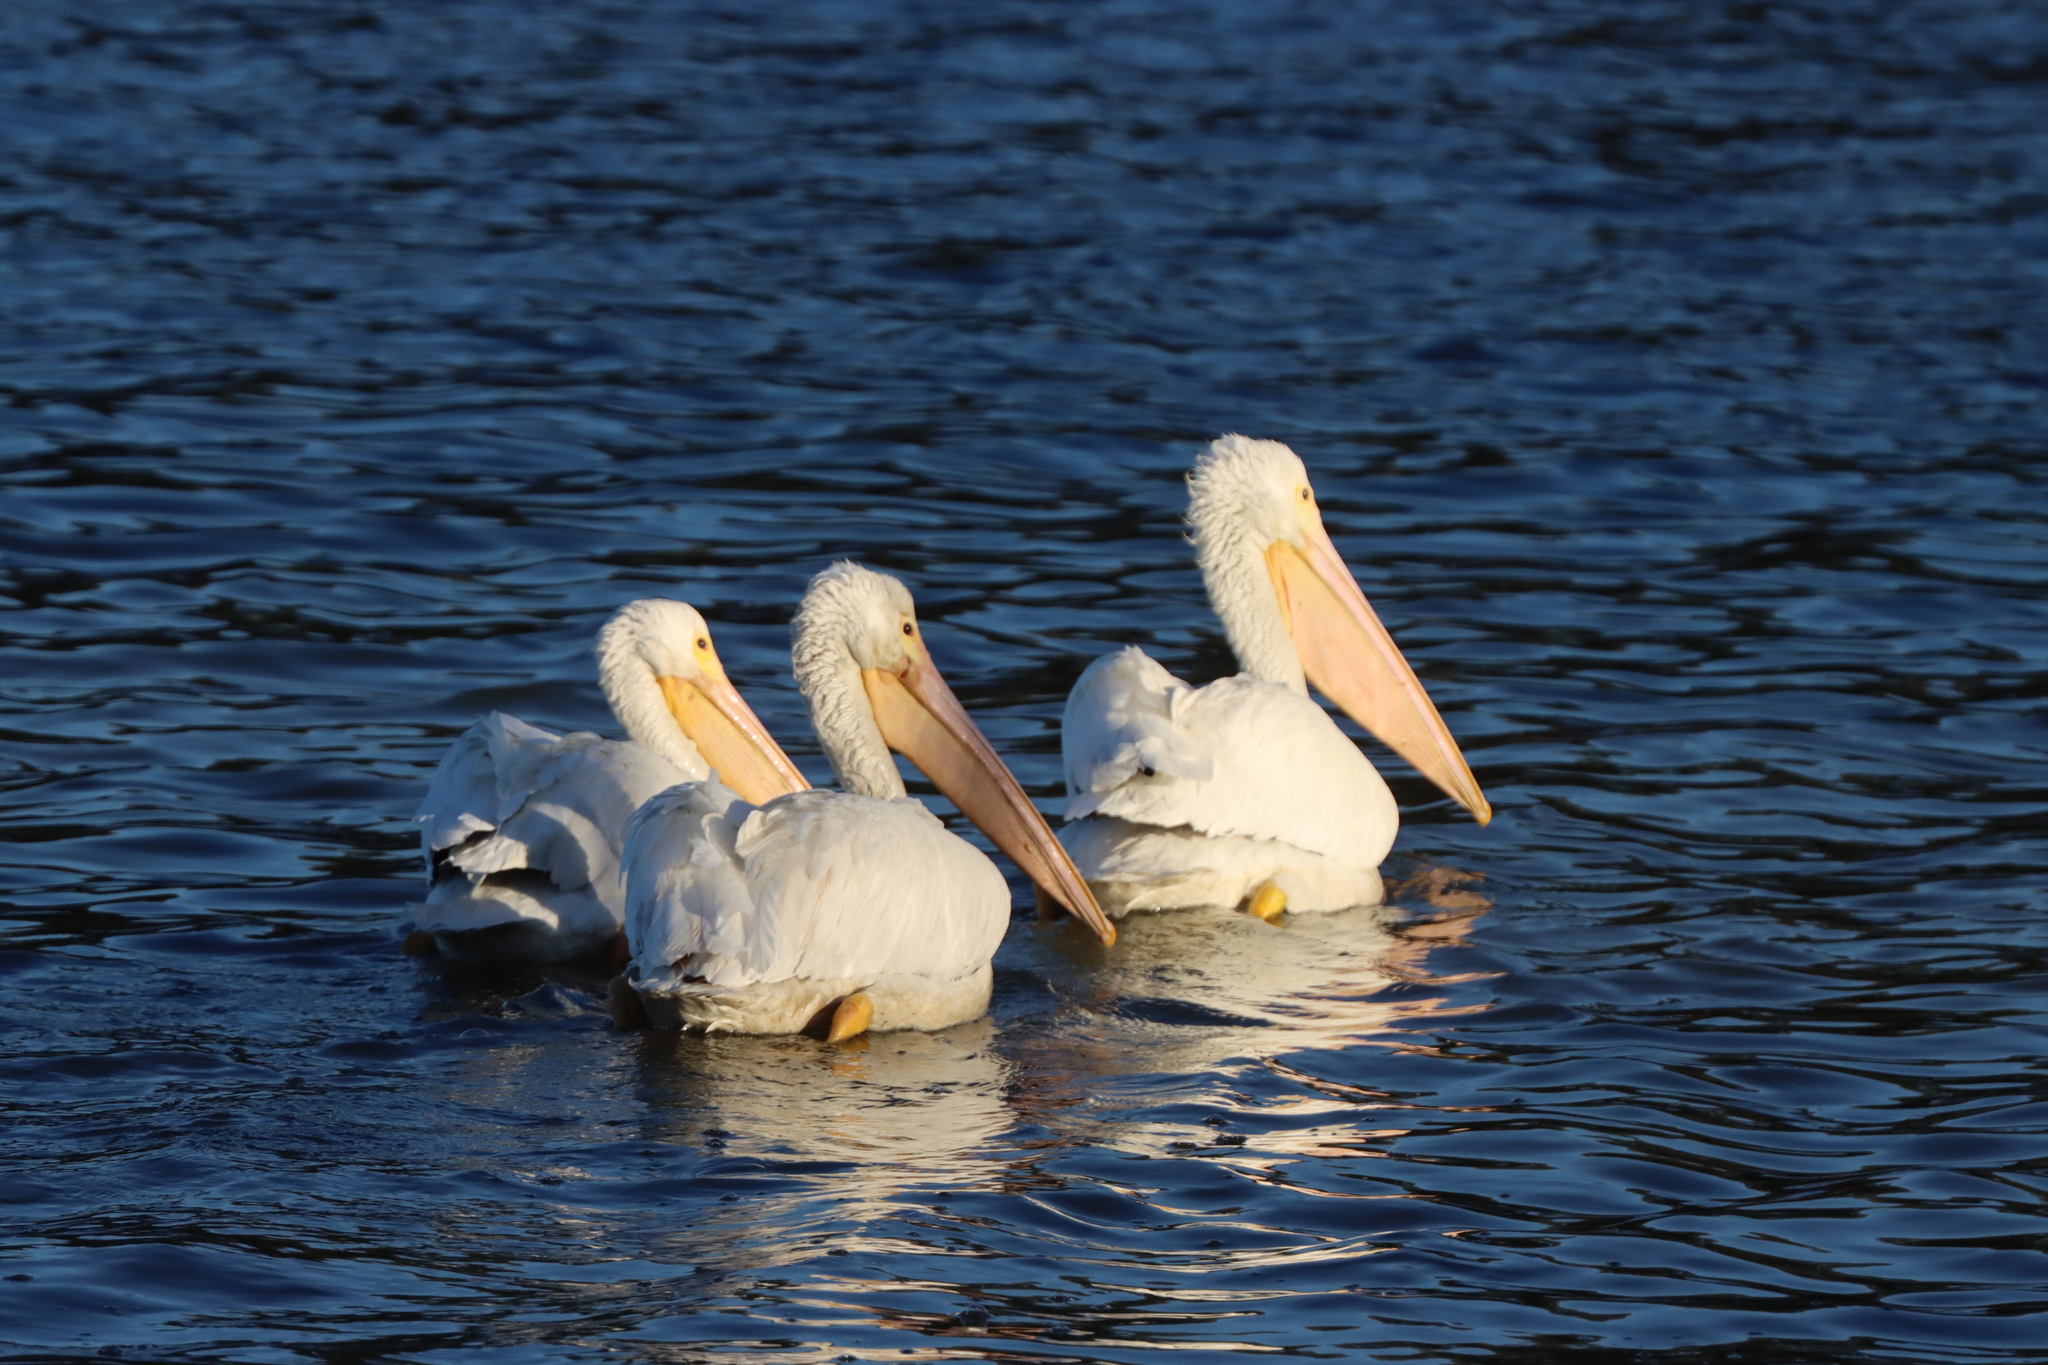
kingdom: Animalia
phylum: Chordata
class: Aves
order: Pelecaniformes
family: Pelecanidae
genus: Pelecanus
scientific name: Pelecanus erythrorhynchos
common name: American white pelican
